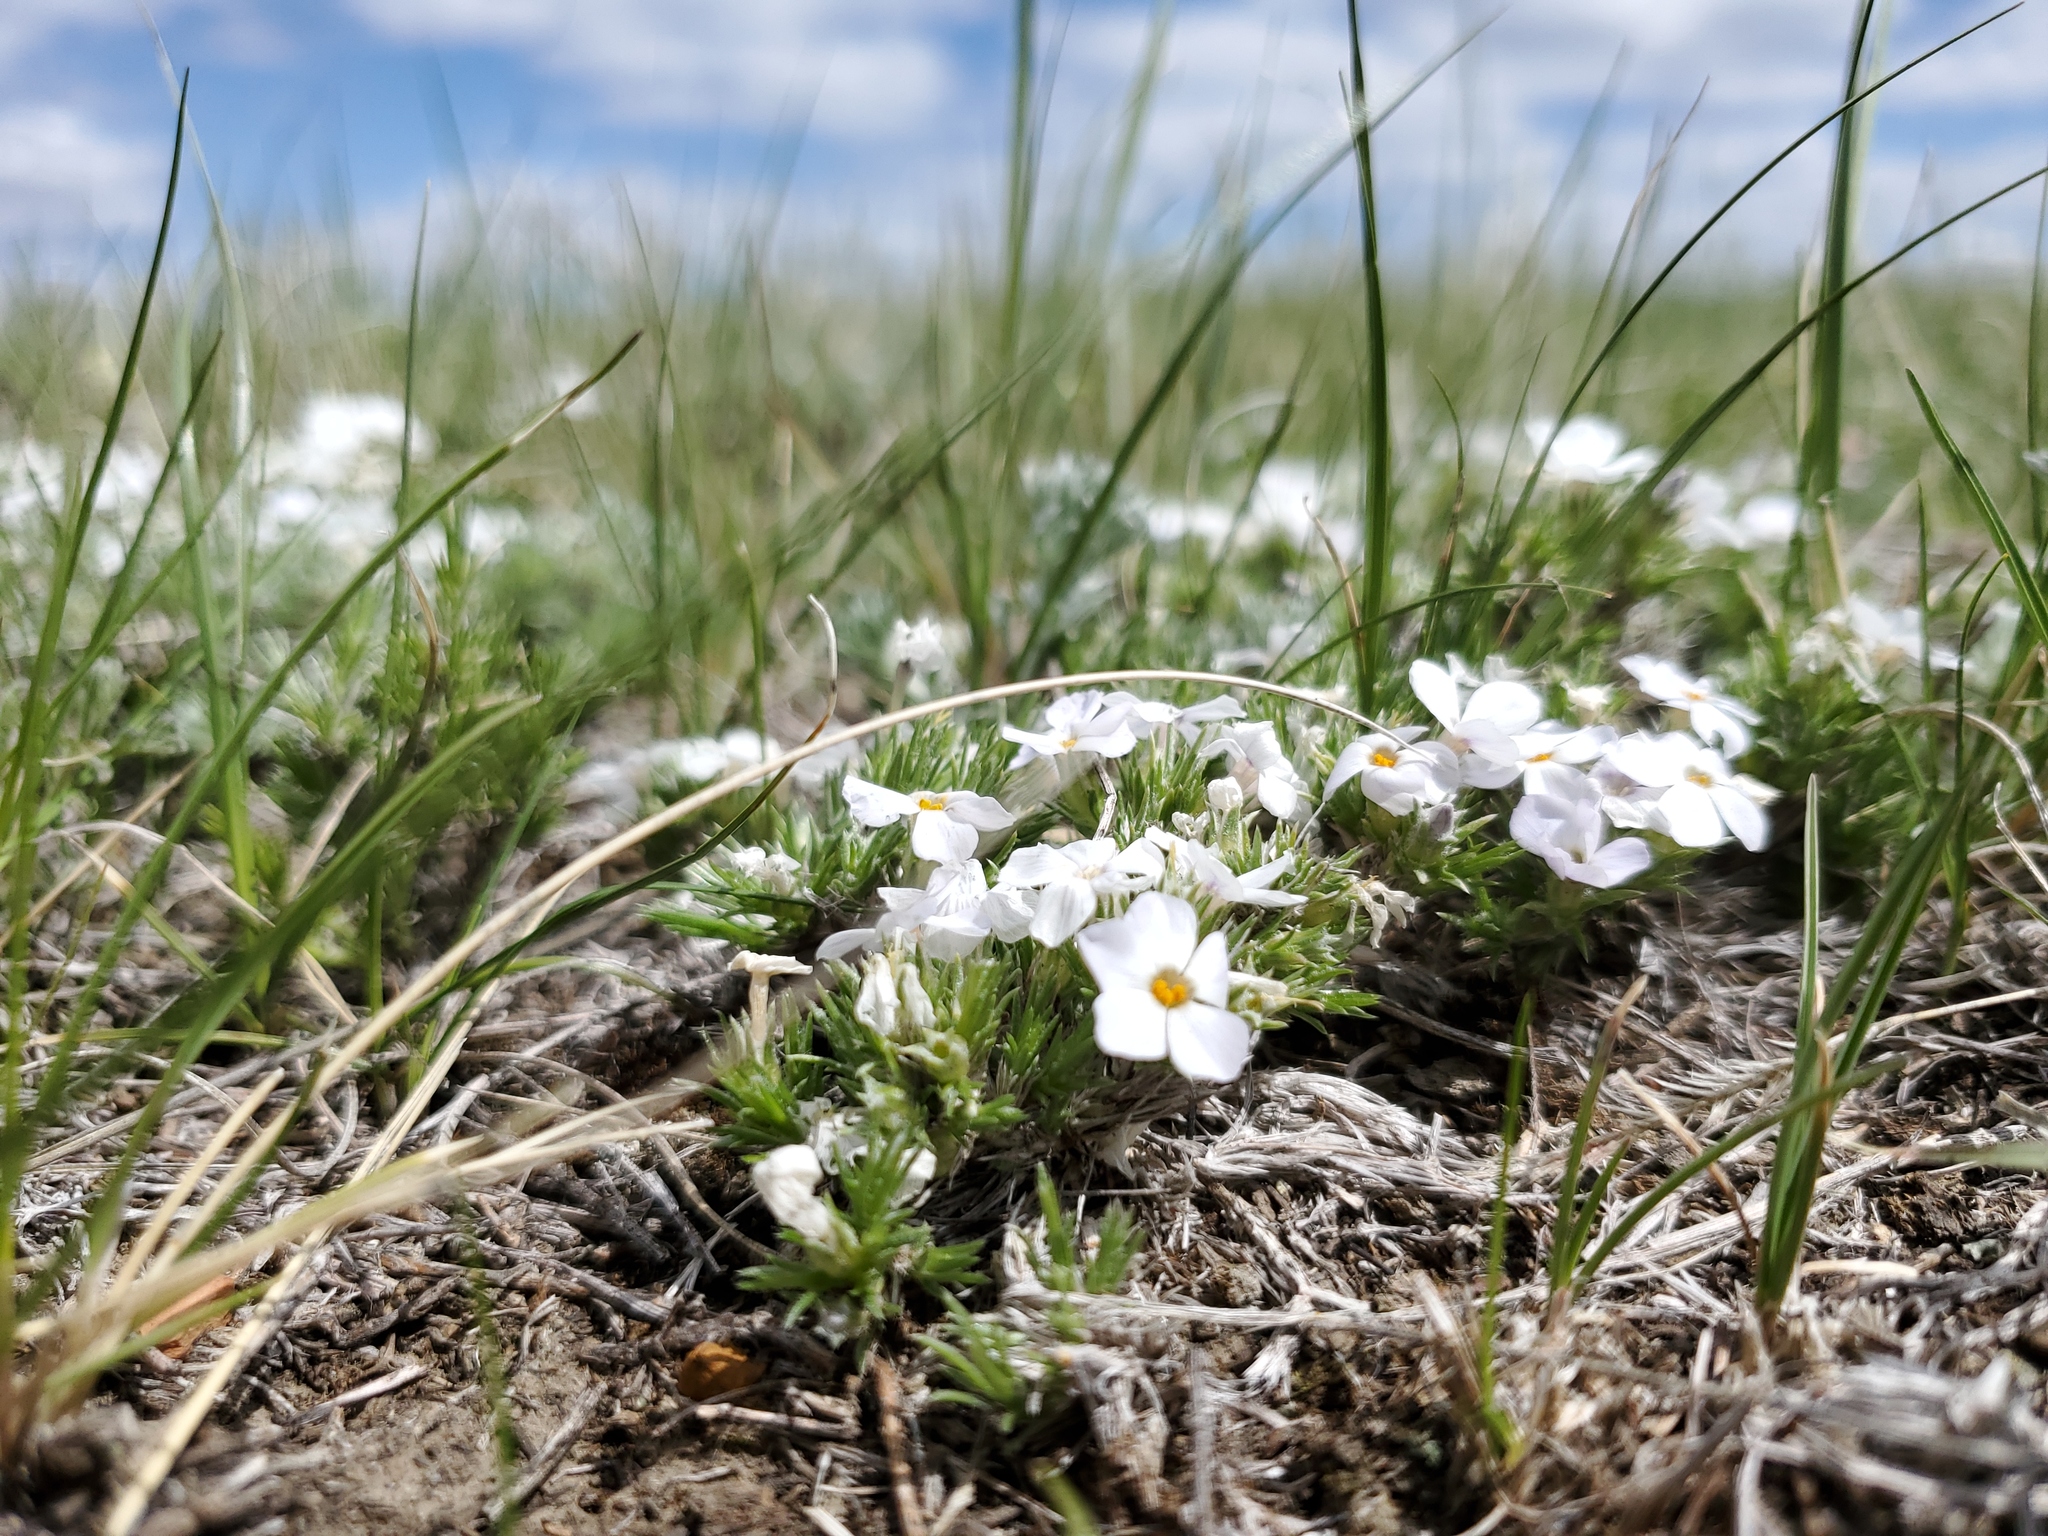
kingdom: Plantae
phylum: Tracheophyta
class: Magnoliopsida
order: Ericales
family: Polemoniaceae
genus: Phlox
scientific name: Phlox hoodii
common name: Moss phlox
